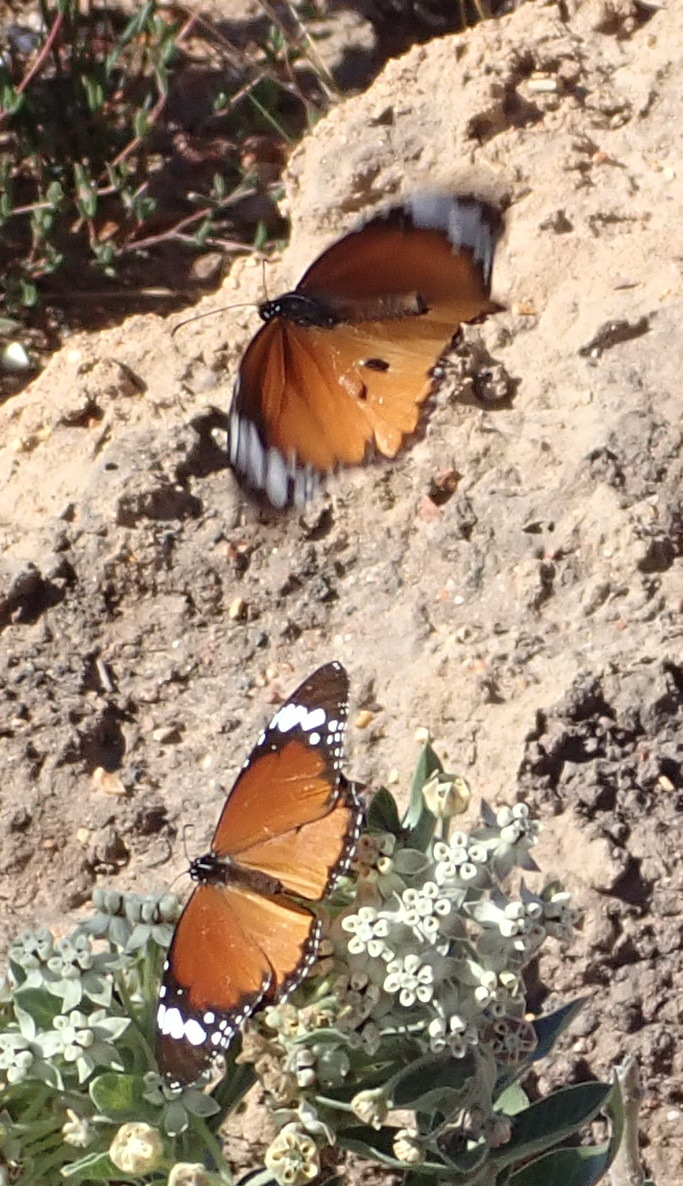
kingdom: Animalia
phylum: Arthropoda
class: Insecta
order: Lepidoptera
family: Nymphalidae
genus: Danaus
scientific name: Danaus chrysippus
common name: Plain tiger
